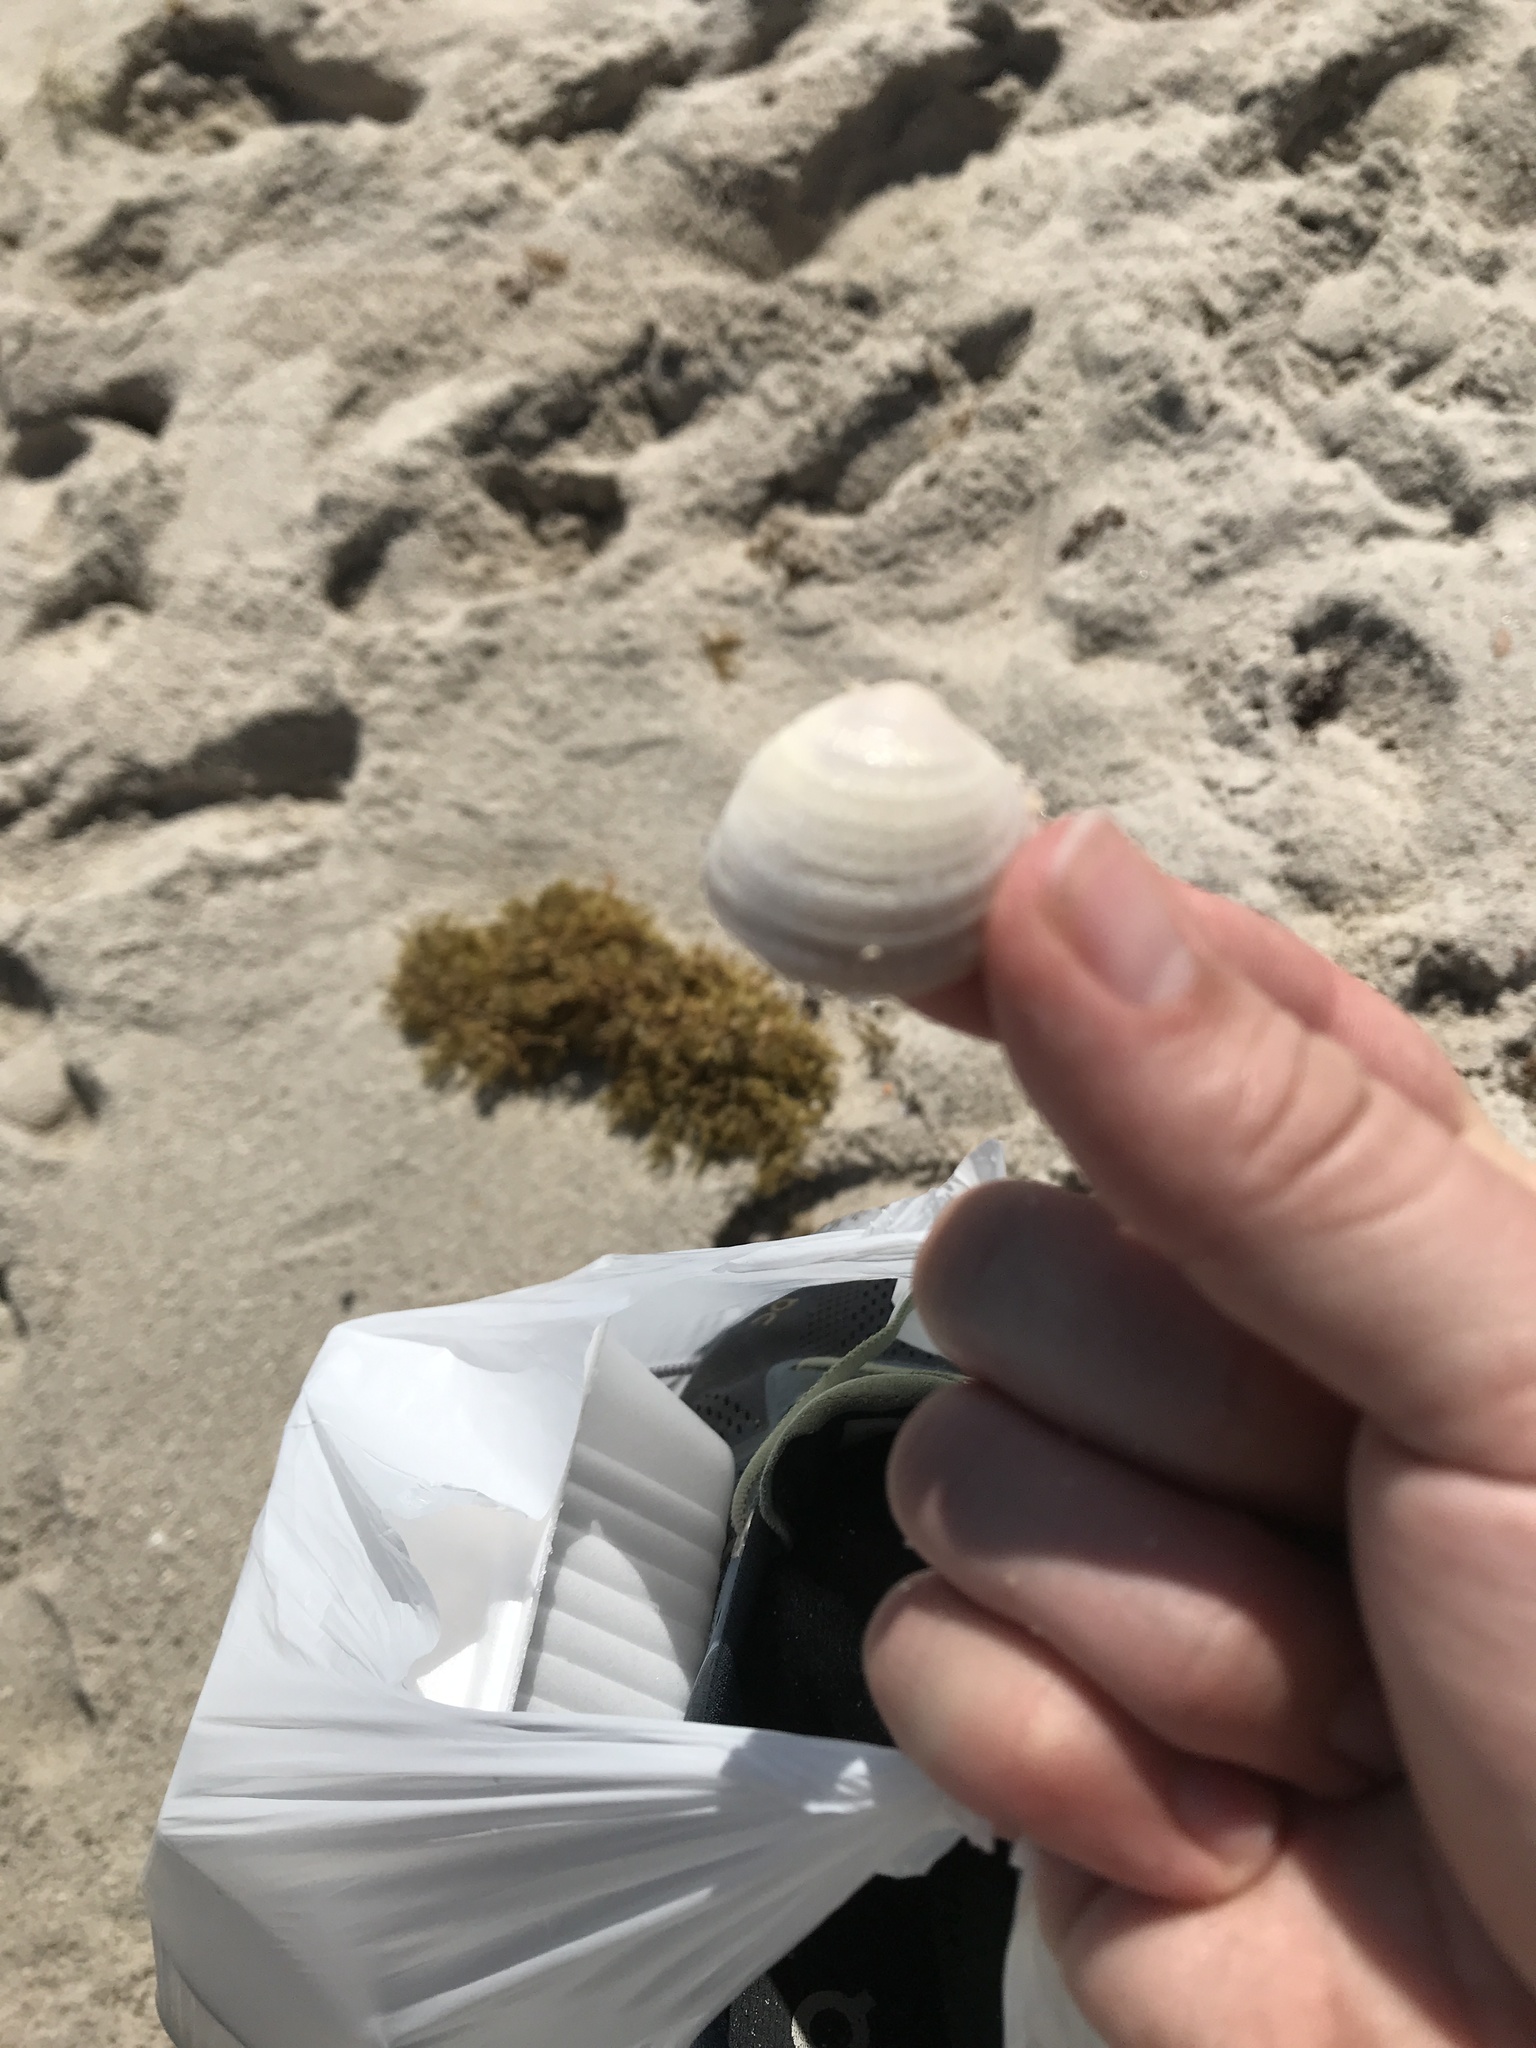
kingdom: Animalia
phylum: Mollusca
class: Bivalvia
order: Venerida
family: Veneridae
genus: Chione
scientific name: Chione elevata
